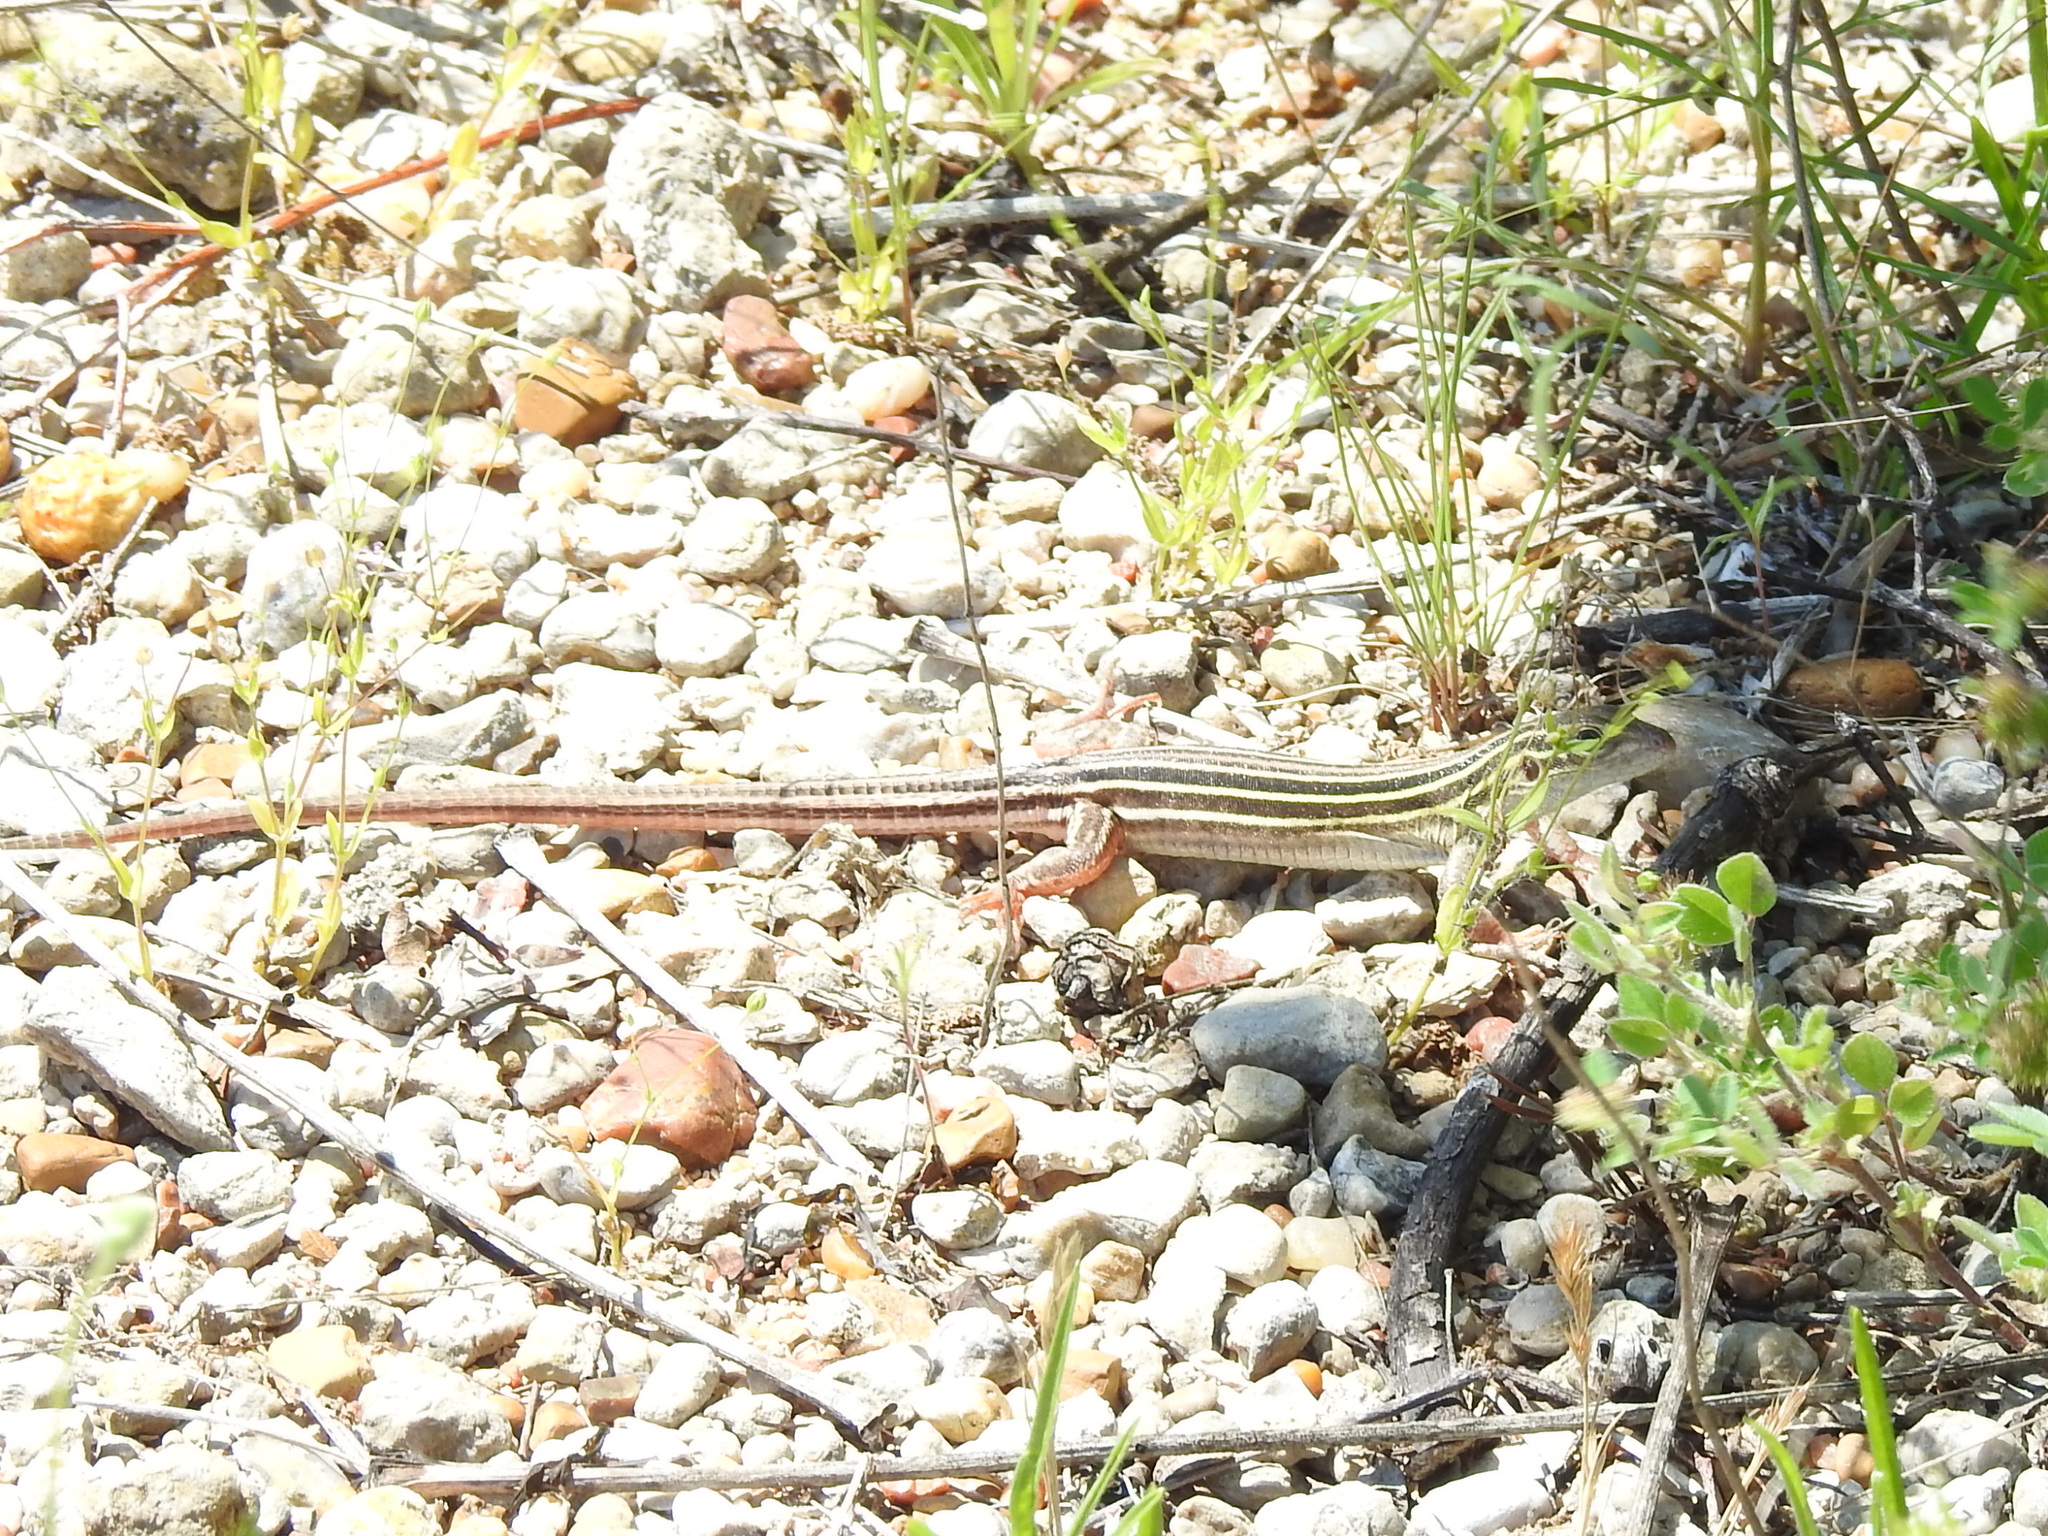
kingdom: Animalia
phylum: Chordata
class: Squamata
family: Teiidae
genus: Aspidoscelis
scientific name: Aspidoscelis sexlineatus
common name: Six-lined racerunner
